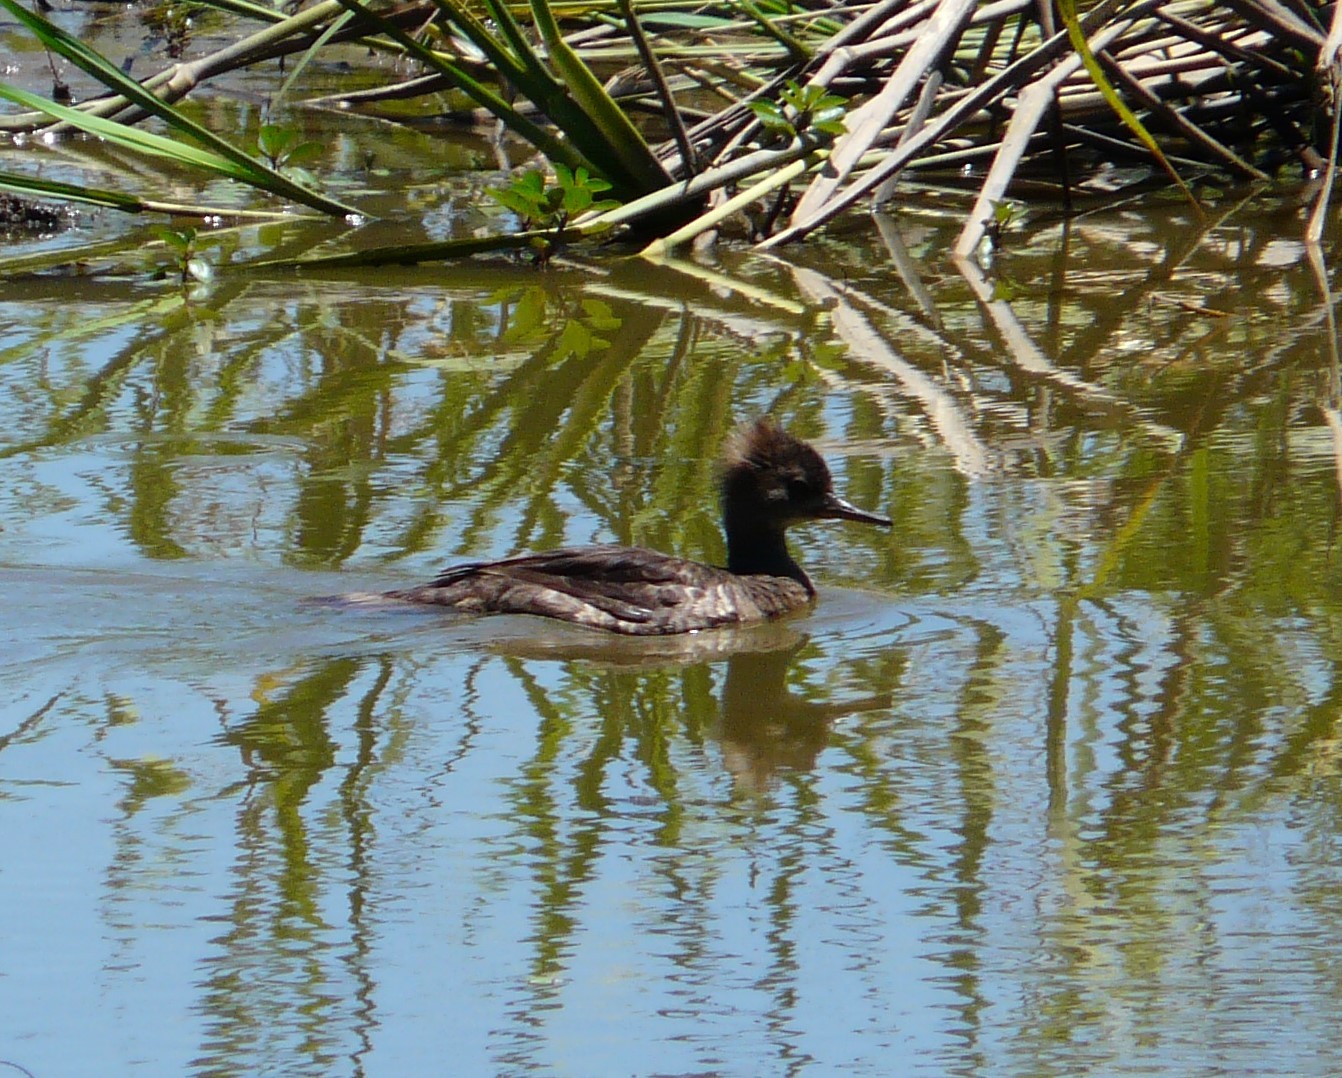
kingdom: Animalia
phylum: Chordata
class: Aves
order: Anseriformes
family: Anatidae
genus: Lophodytes
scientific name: Lophodytes cucullatus
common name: Hooded merganser
